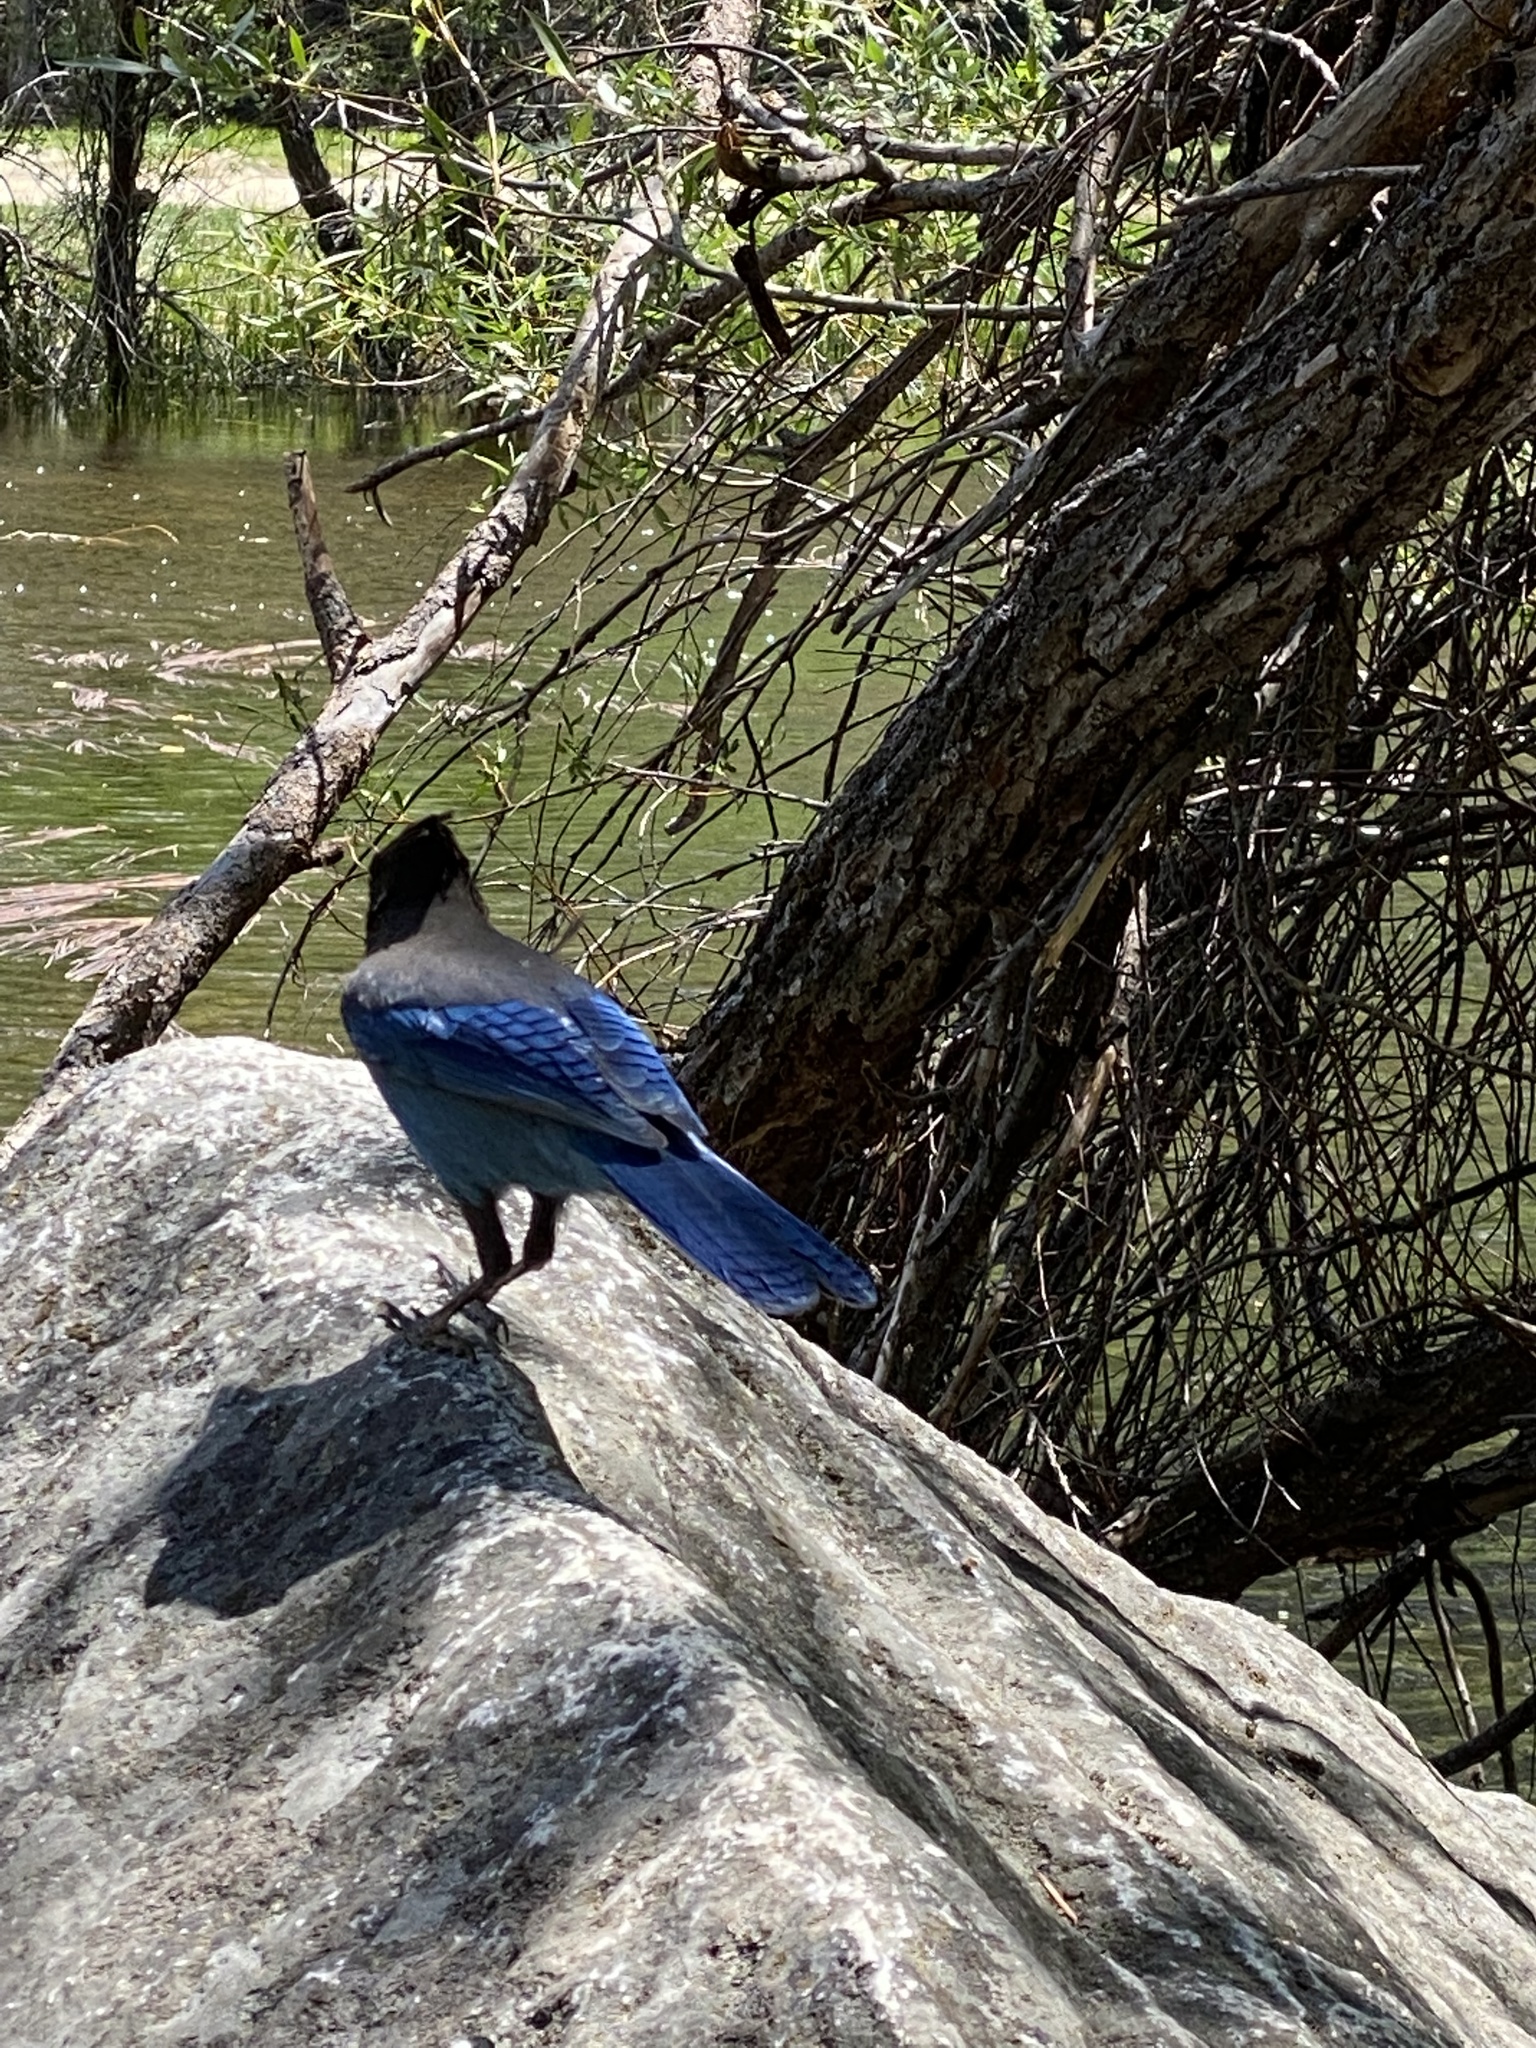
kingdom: Animalia
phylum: Chordata
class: Aves
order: Passeriformes
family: Corvidae
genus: Cyanocitta
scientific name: Cyanocitta stelleri
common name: Steller's jay
